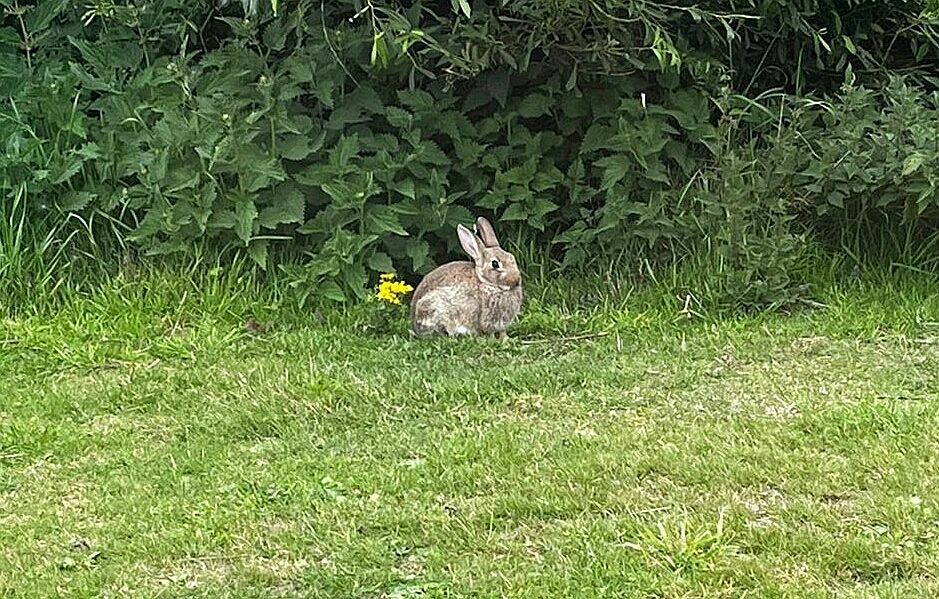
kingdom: Animalia
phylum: Chordata
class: Mammalia
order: Lagomorpha
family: Leporidae
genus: Oryctolagus
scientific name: Oryctolagus cuniculus
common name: European rabbit
